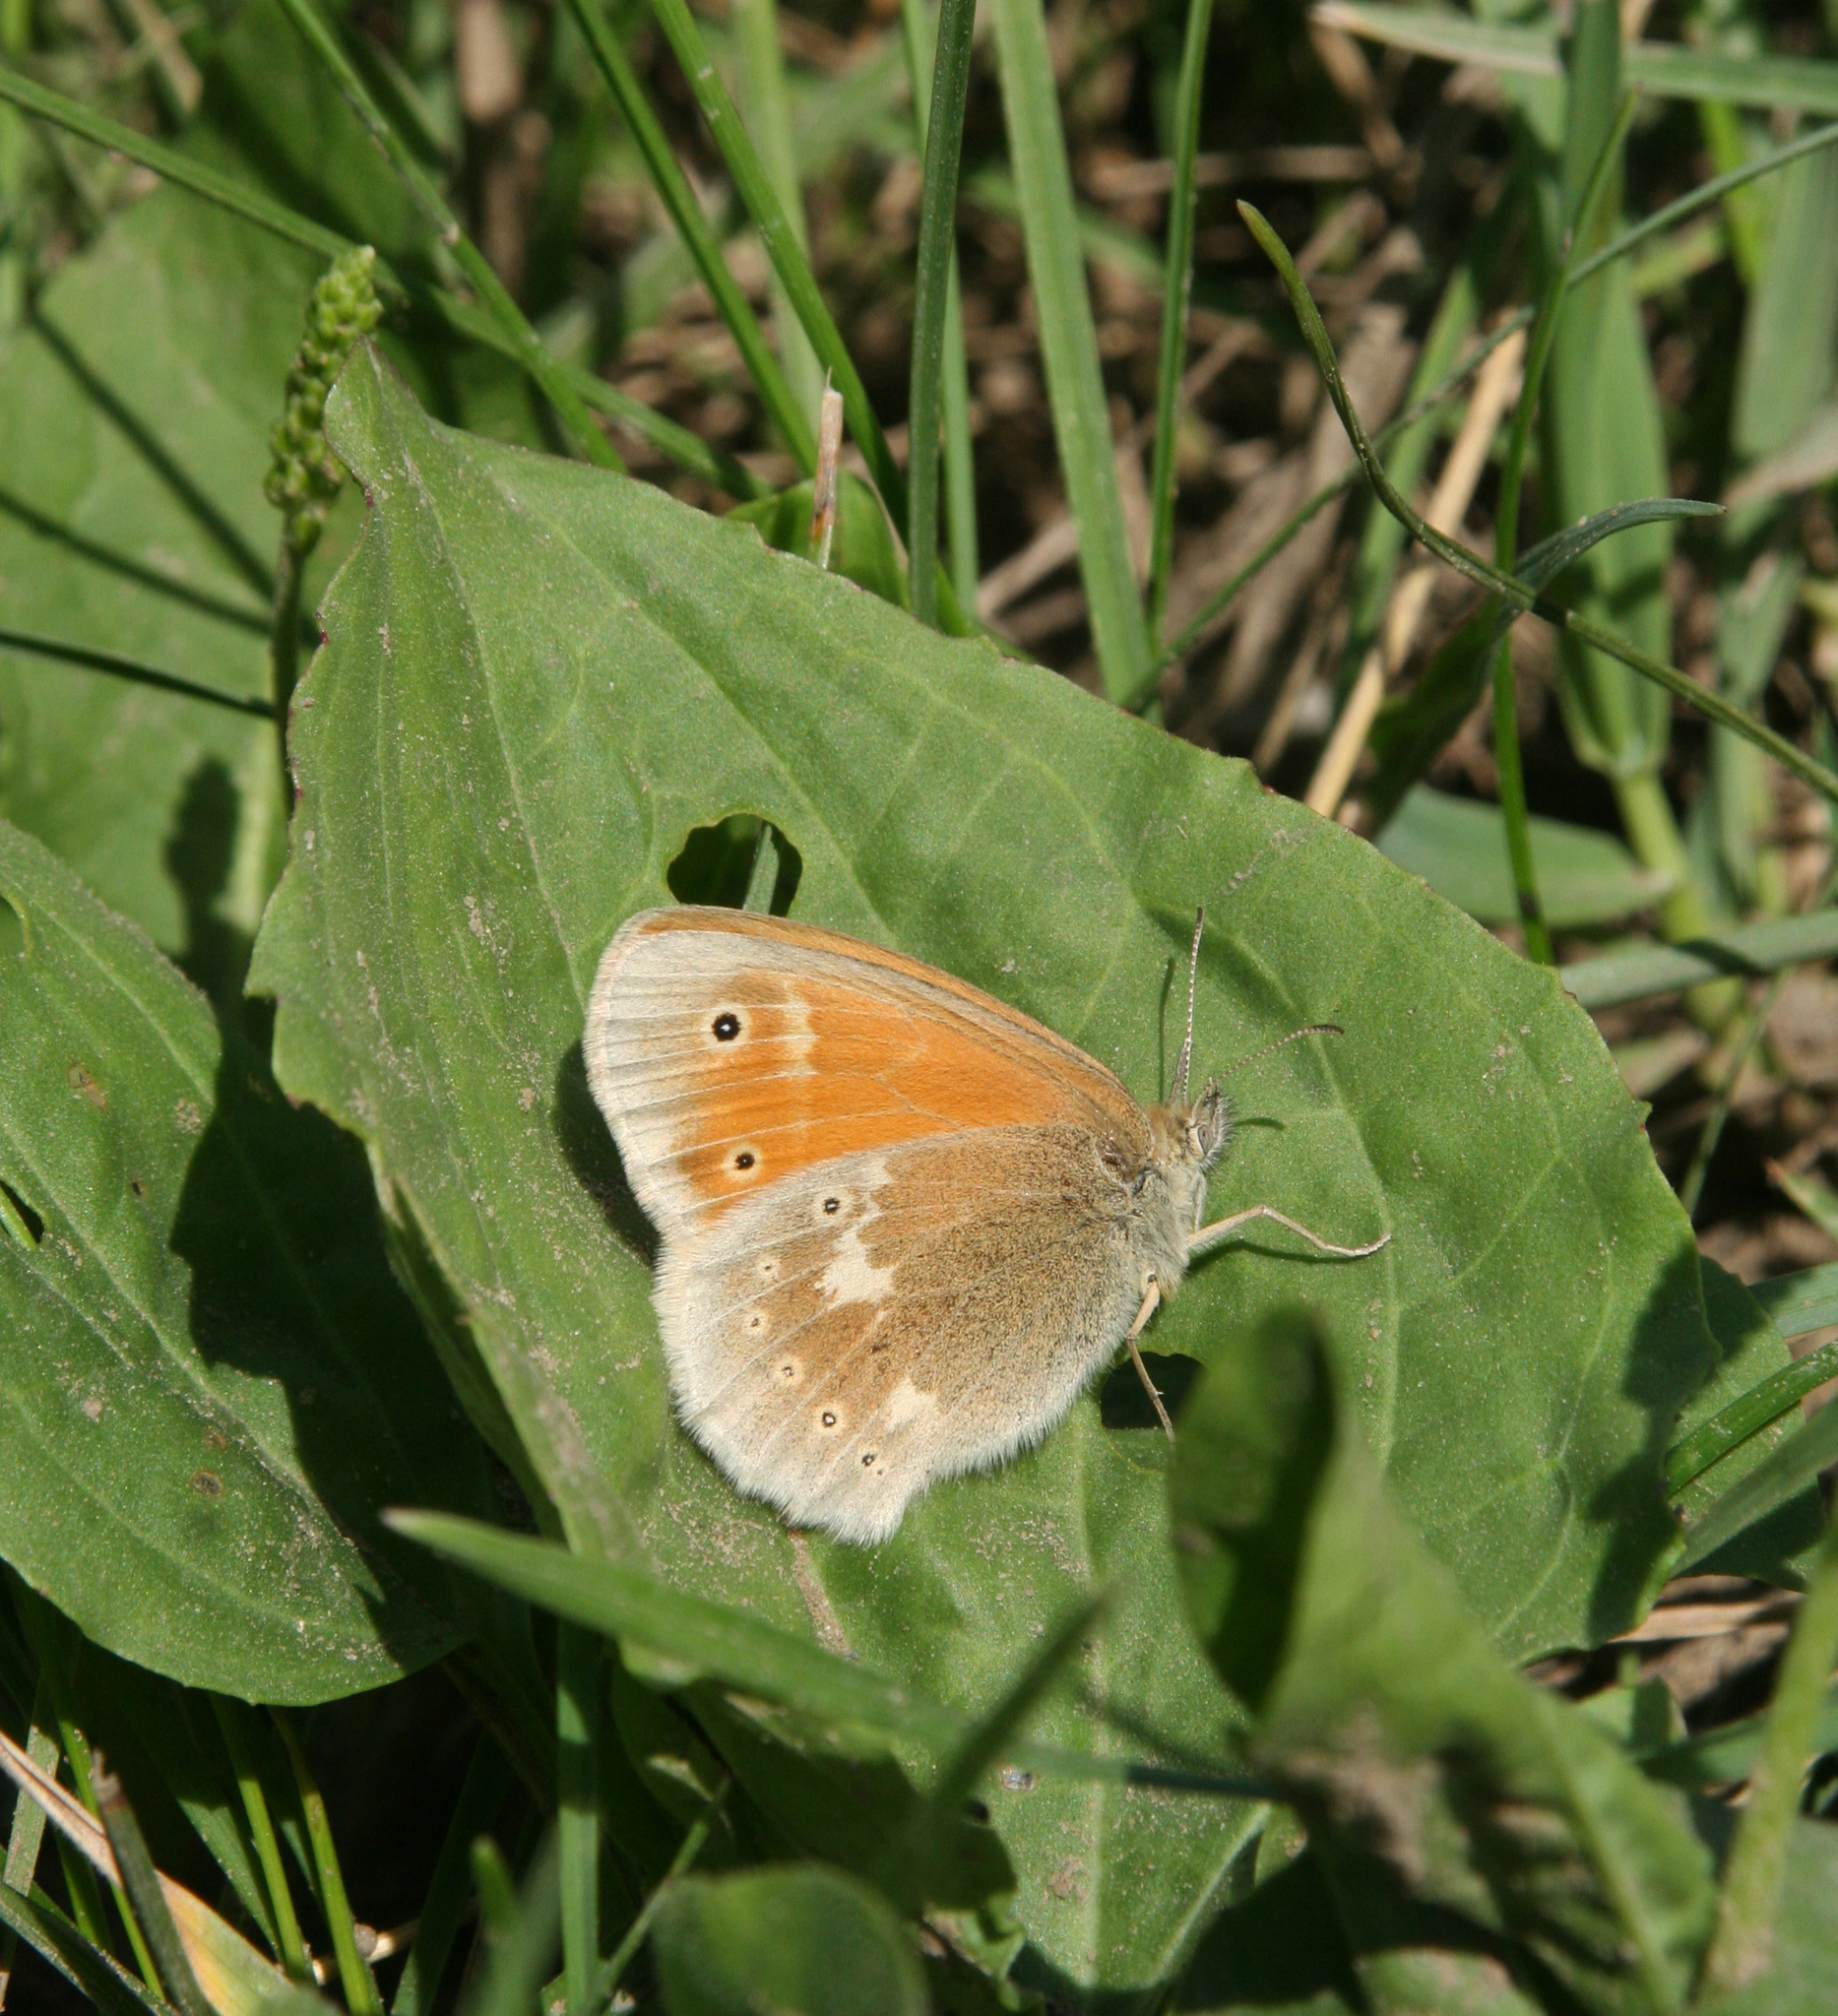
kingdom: Animalia
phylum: Arthropoda
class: Insecta
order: Lepidoptera
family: Nymphalidae
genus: Coenonympha
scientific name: Coenonympha tullia
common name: Large heath
